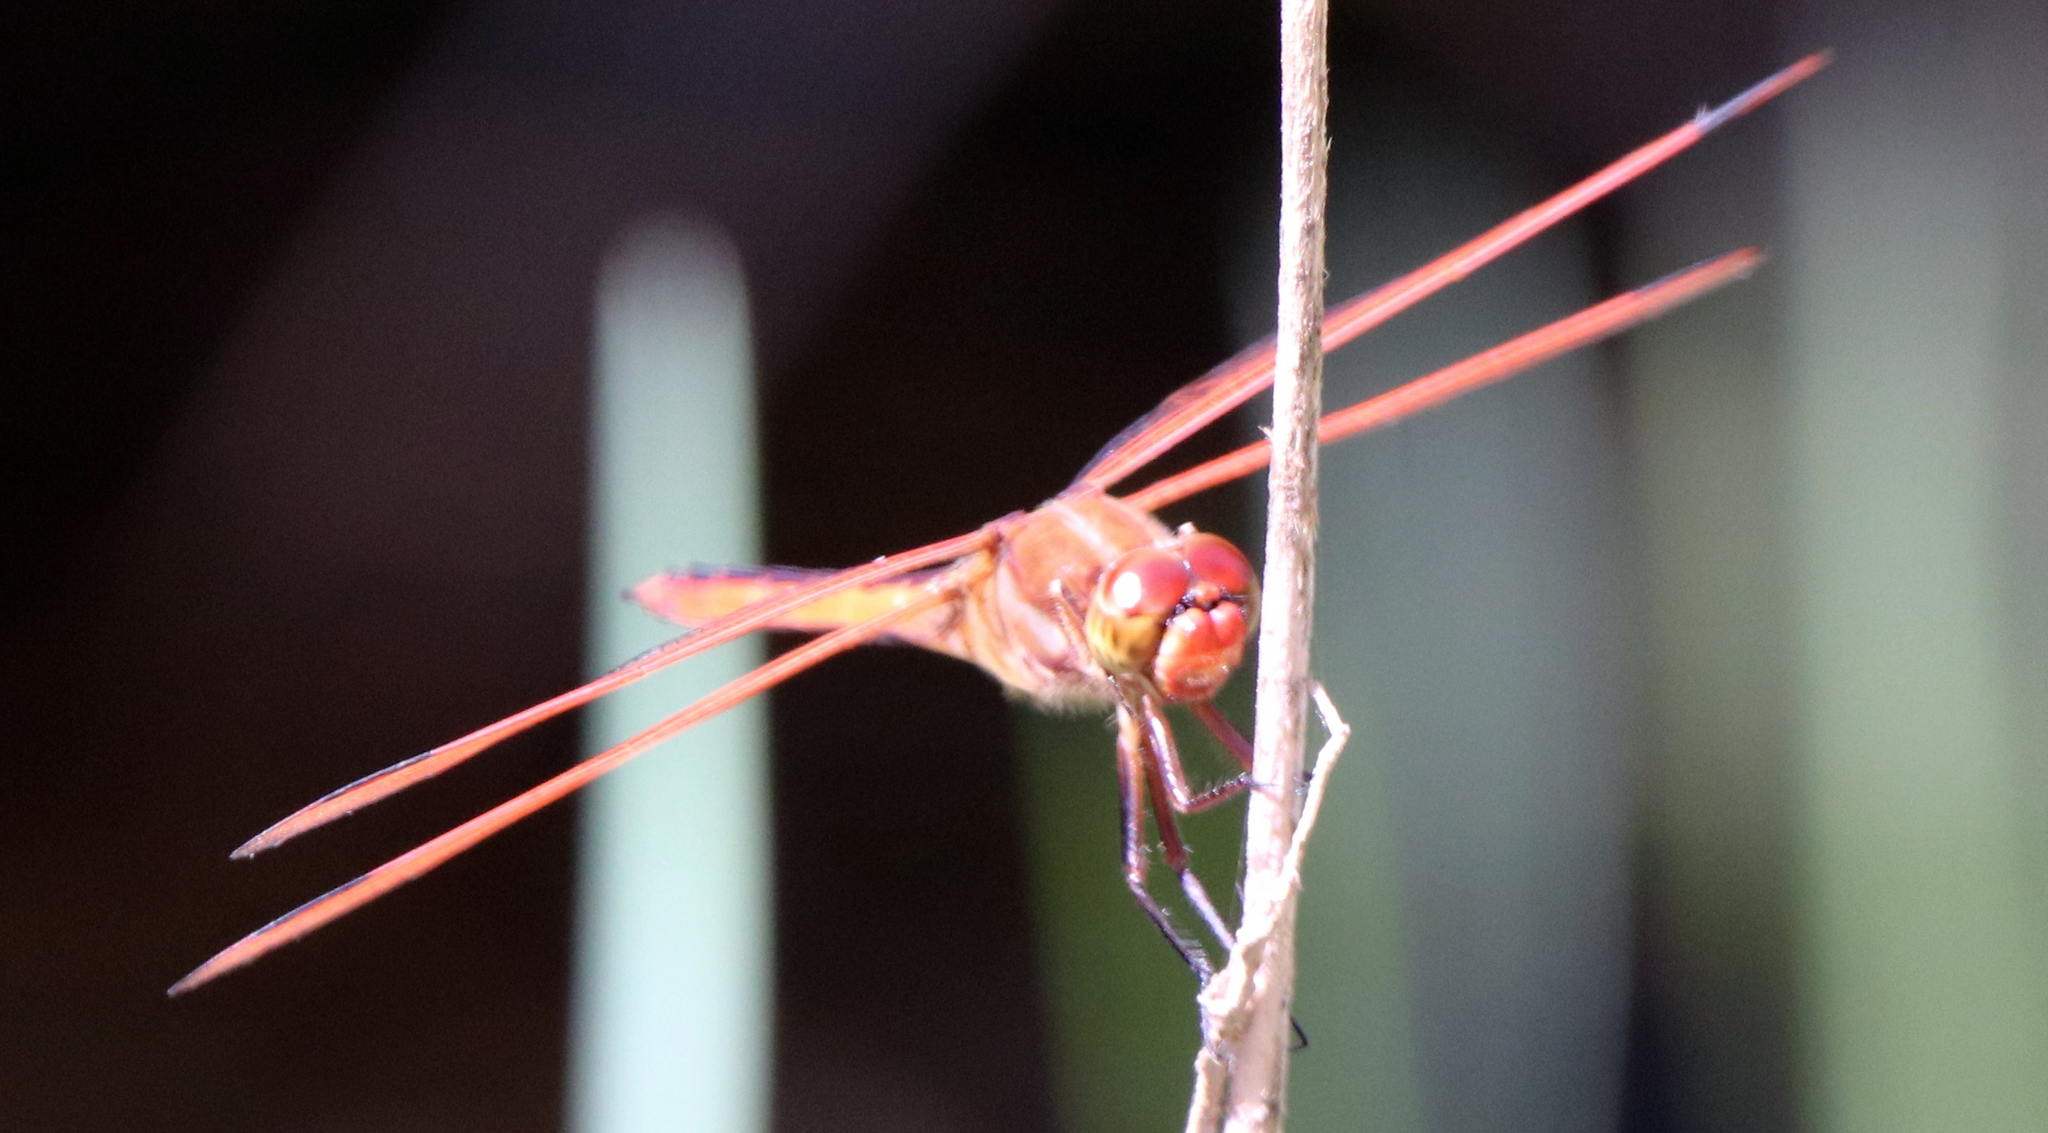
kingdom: Animalia
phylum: Arthropoda
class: Insecta
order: Odonata
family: Libellulidae
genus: Libellula
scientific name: Libellula auripennis
